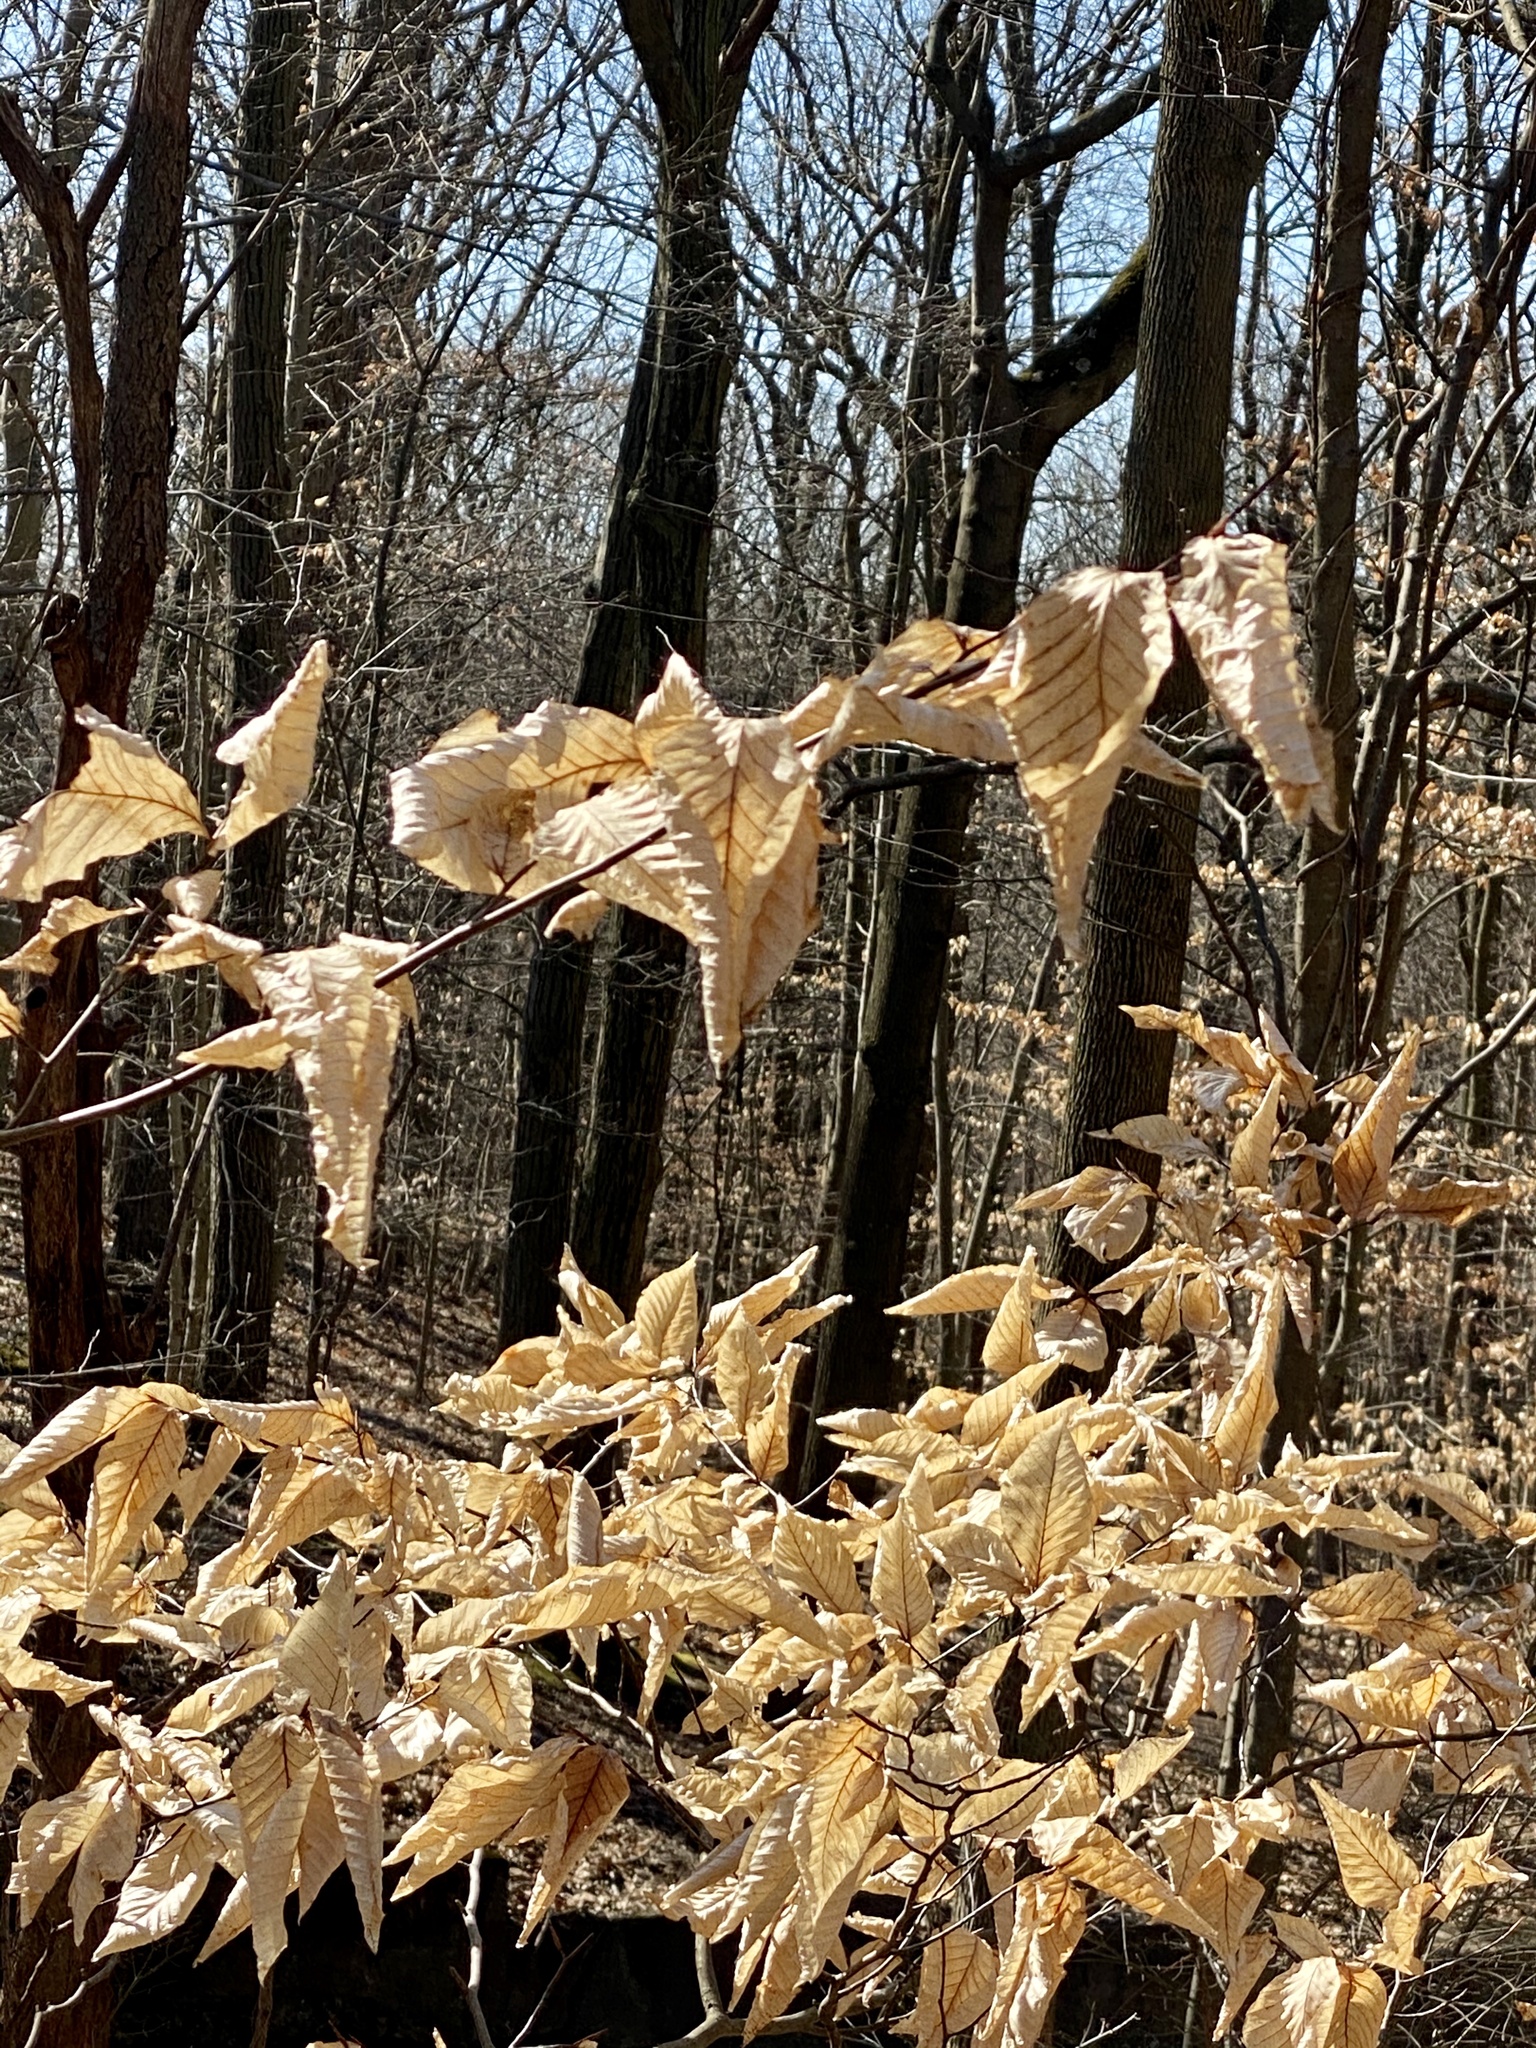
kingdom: Plantae
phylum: Tracheophyta
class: Magnoliopsida
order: Fagales
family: Fagaceae
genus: Fagus
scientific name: Fagus grandifolia
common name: American beech
